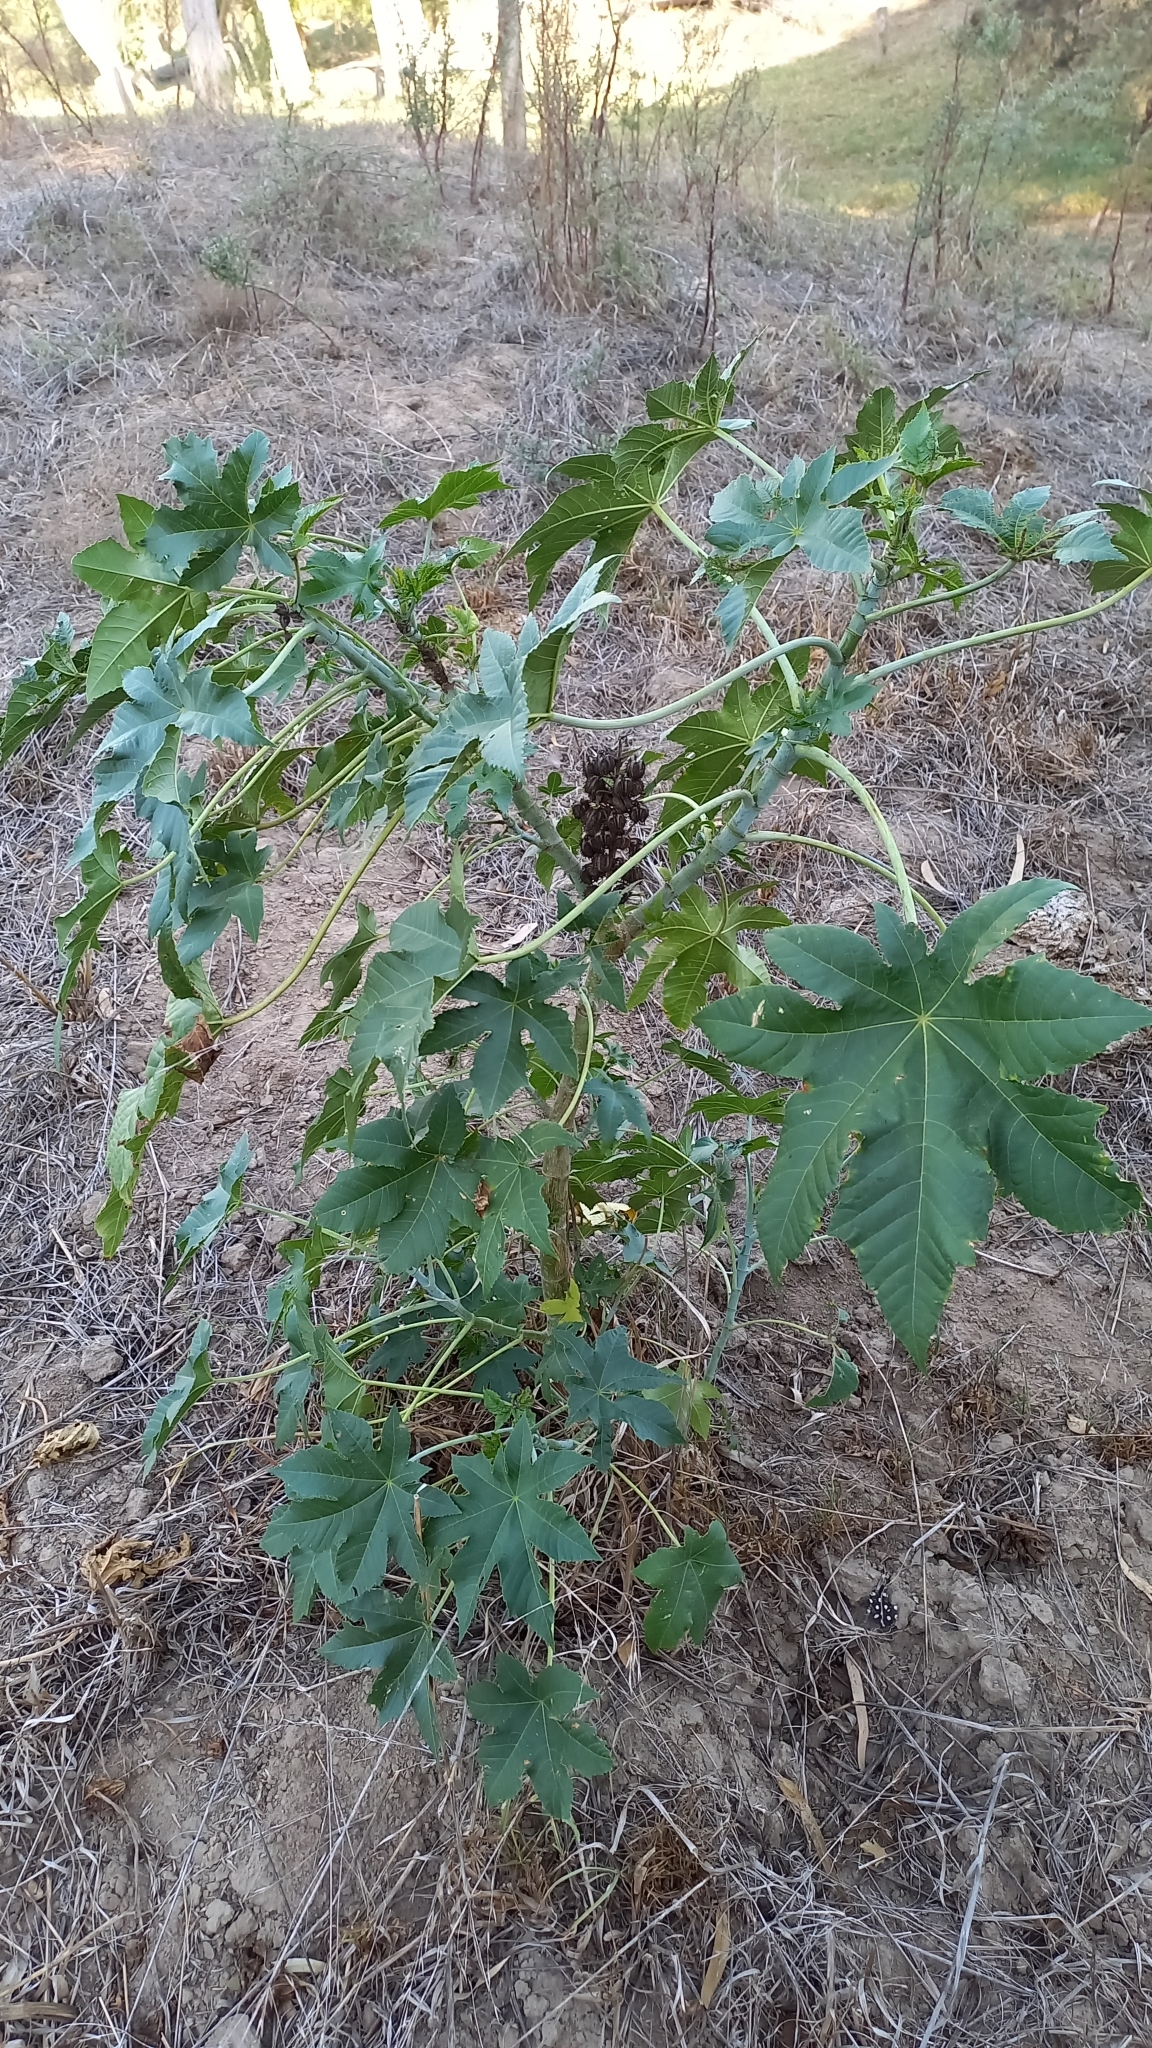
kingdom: Plantae
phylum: Tracheophyta
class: Magnoliopsida
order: Malpighiales
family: Euphorbiaceae
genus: Ricinus
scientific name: Ricinus communis
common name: Castor-oil-plant
